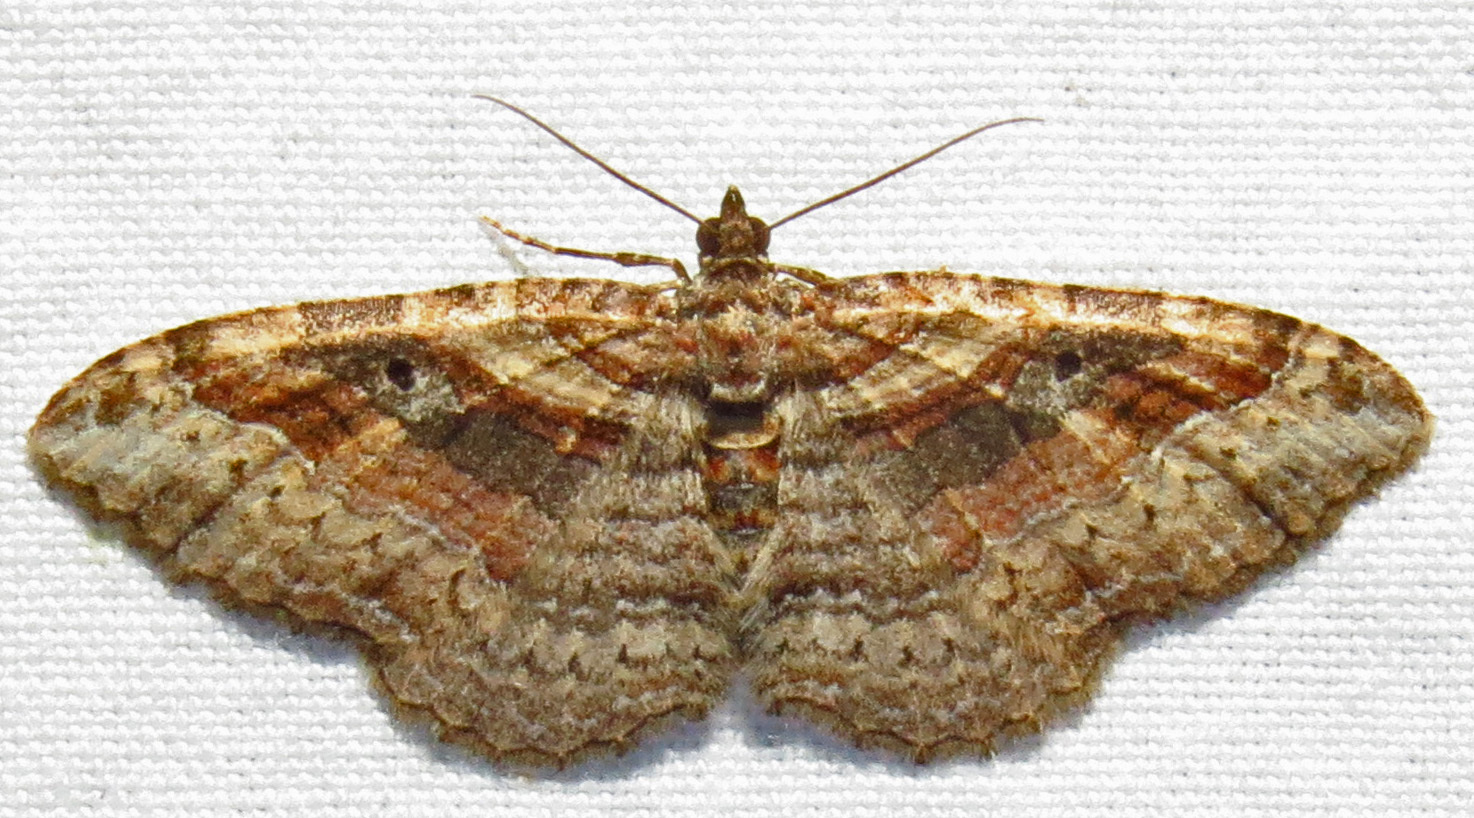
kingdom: Animalia
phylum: Arthropoda
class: Insecta
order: Lepidoptera
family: Geometridae
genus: Costaconvexa
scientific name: Costaconvexa centrostrigaria
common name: Bent-line carpet
